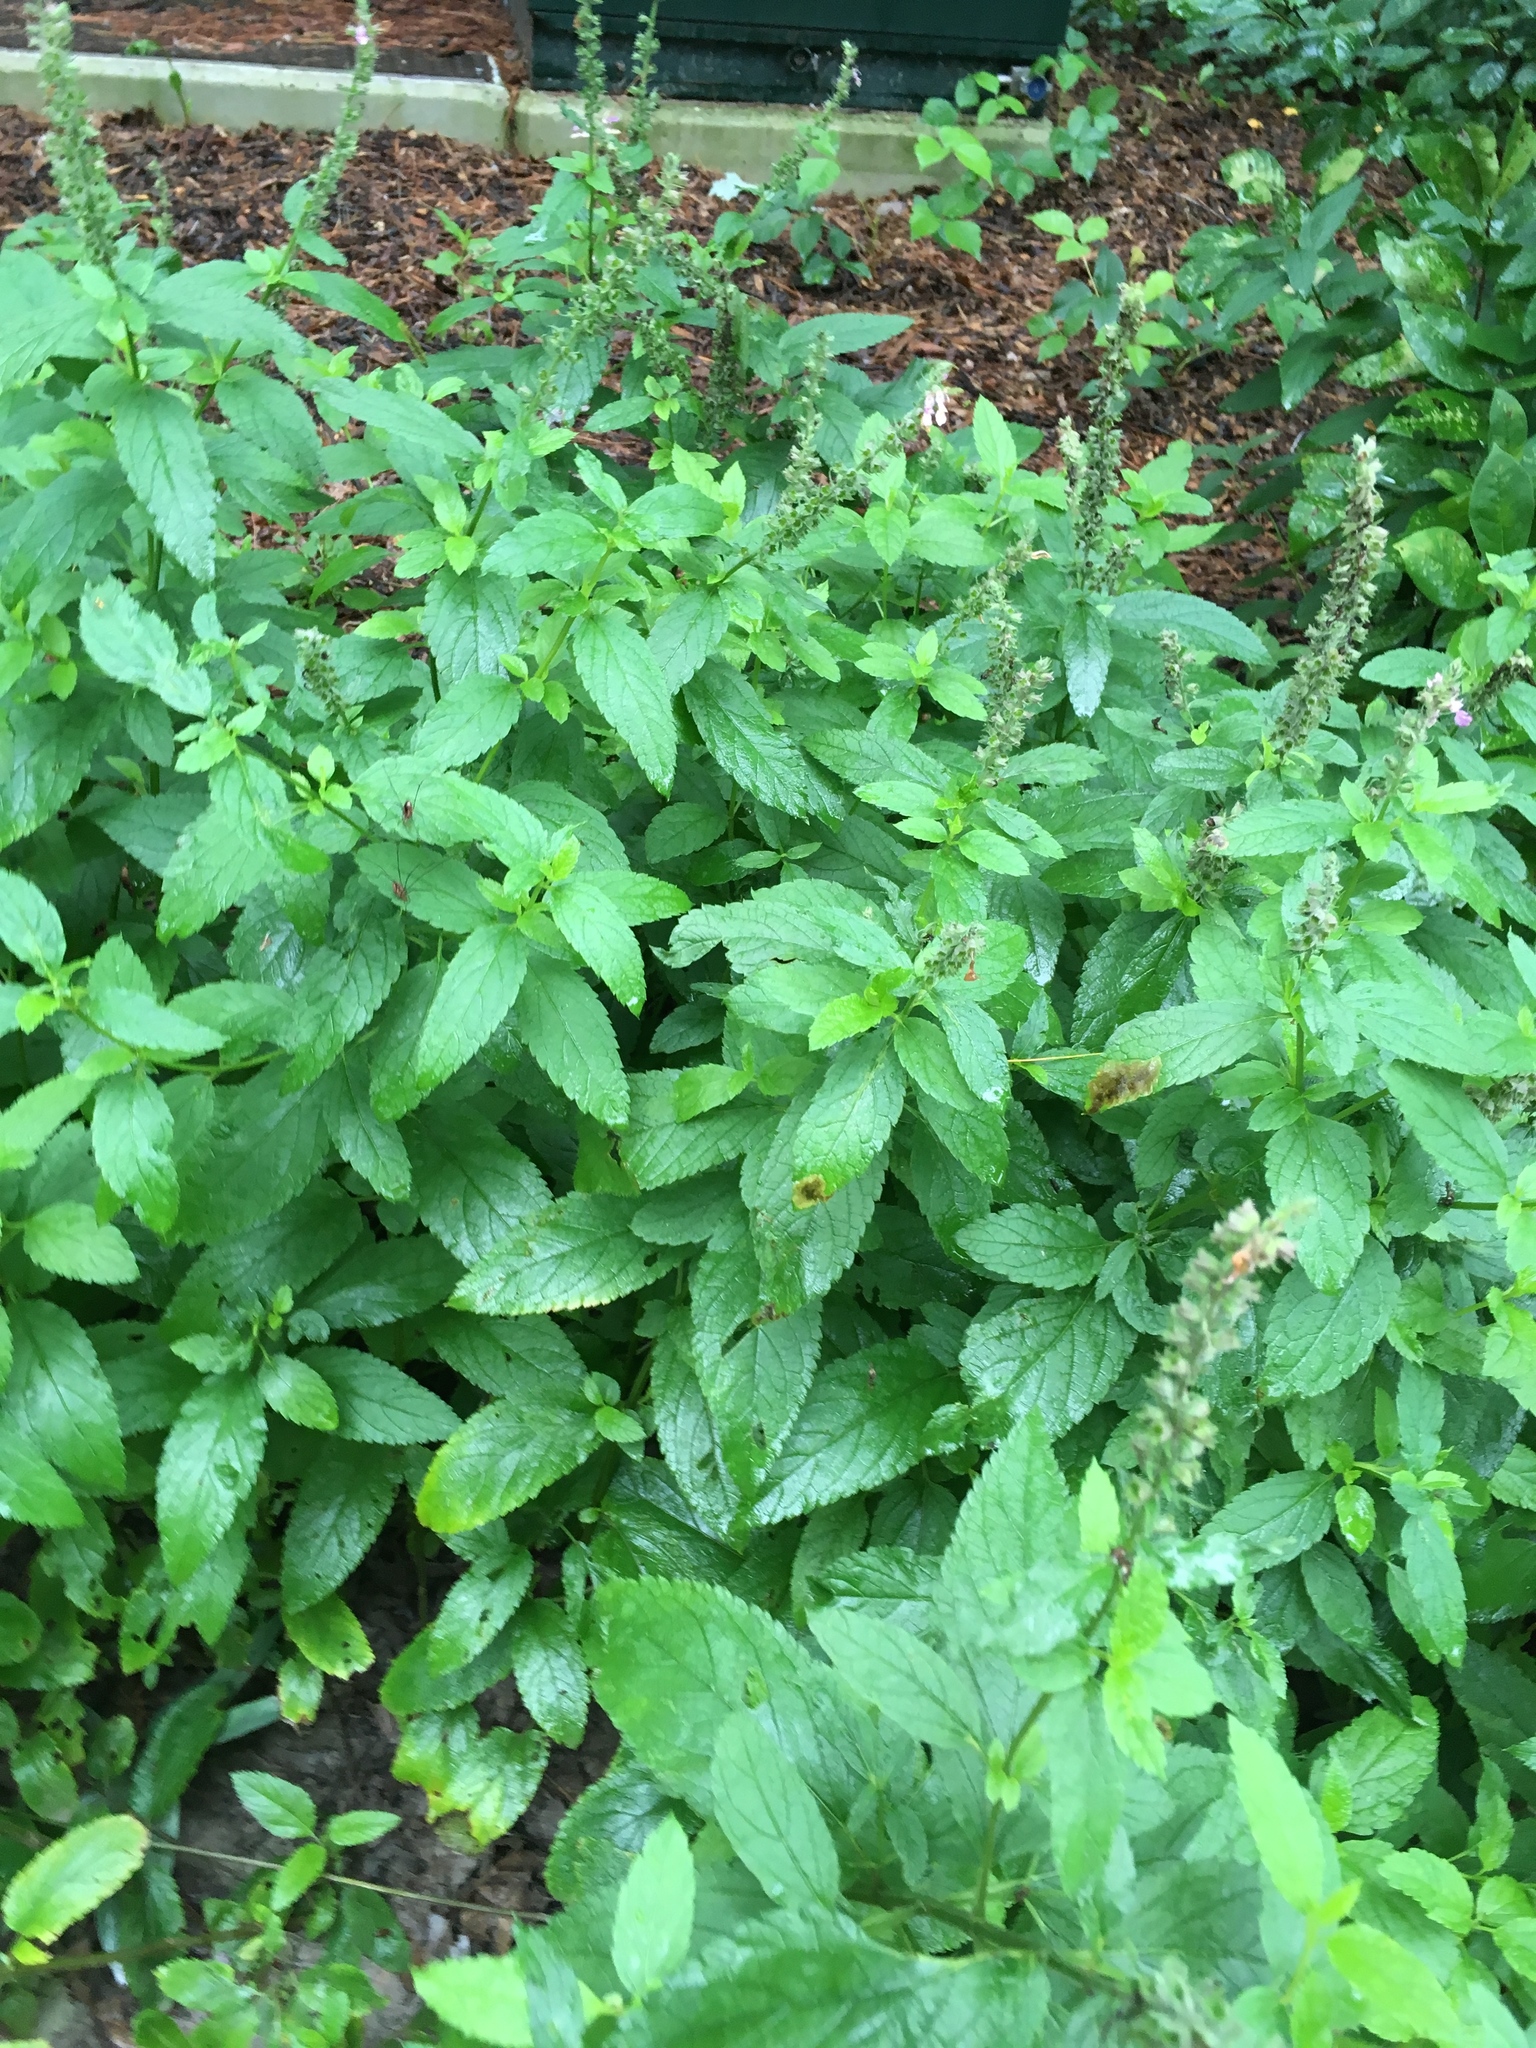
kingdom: Plantae
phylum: Tracheophyta
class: Magnoliopsida
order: Lamiales
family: Lamiaceae
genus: Teucrium
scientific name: Teucrium canadense
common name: American germander
